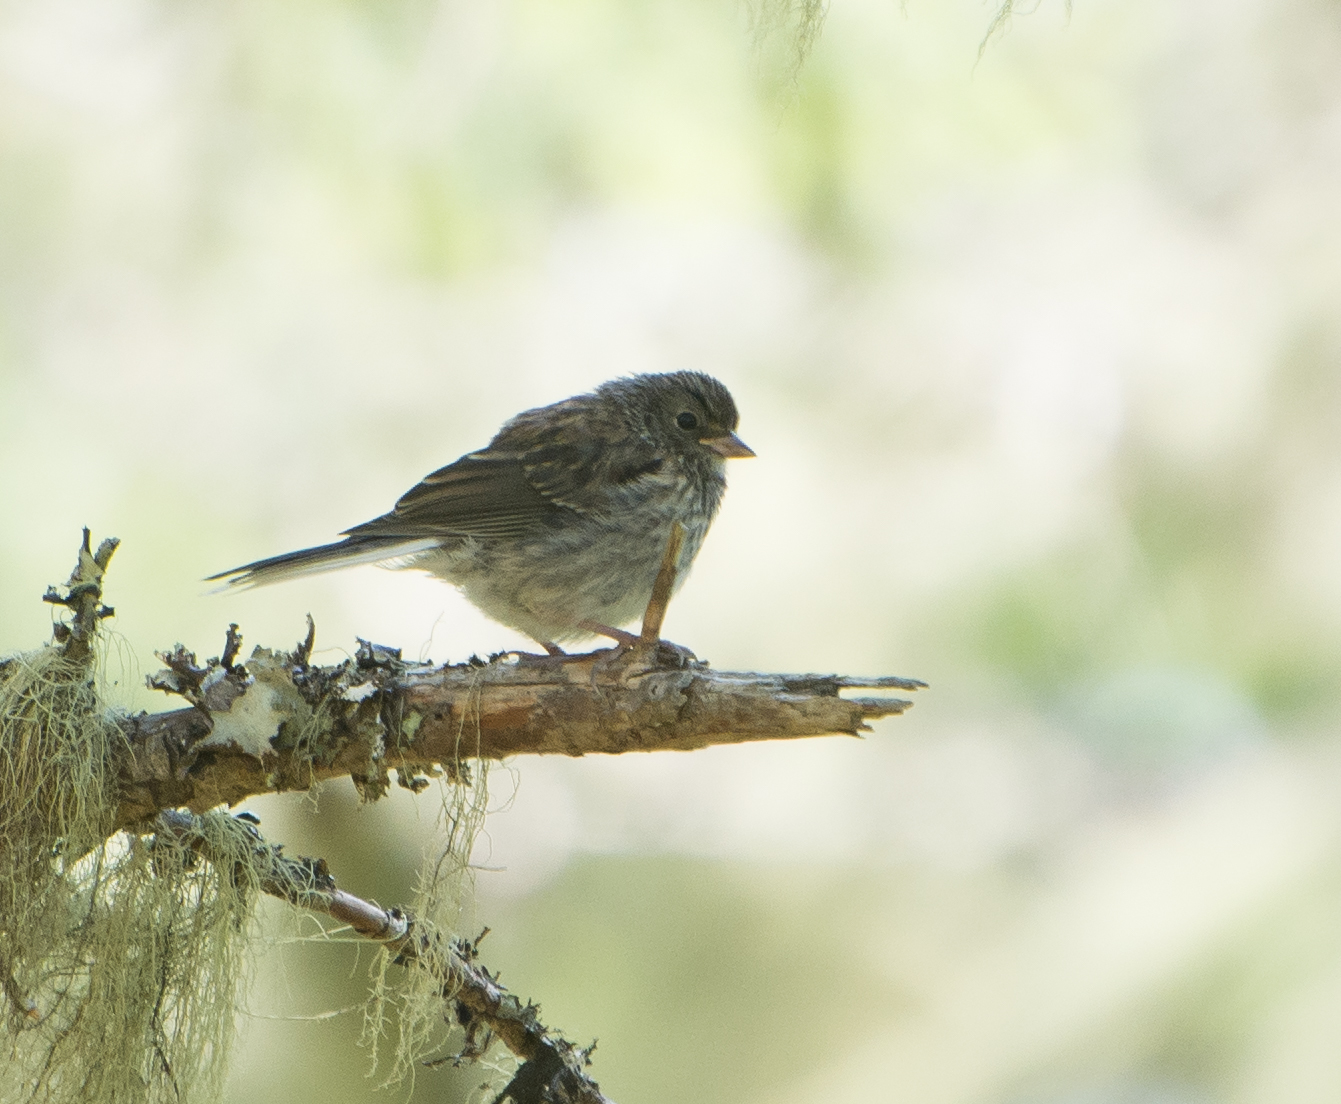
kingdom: Animalia
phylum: Chordata
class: Aves
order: Passeriformes
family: Passerellidae
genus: Junco
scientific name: Junco hyemalis
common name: Dark-eyed junco
